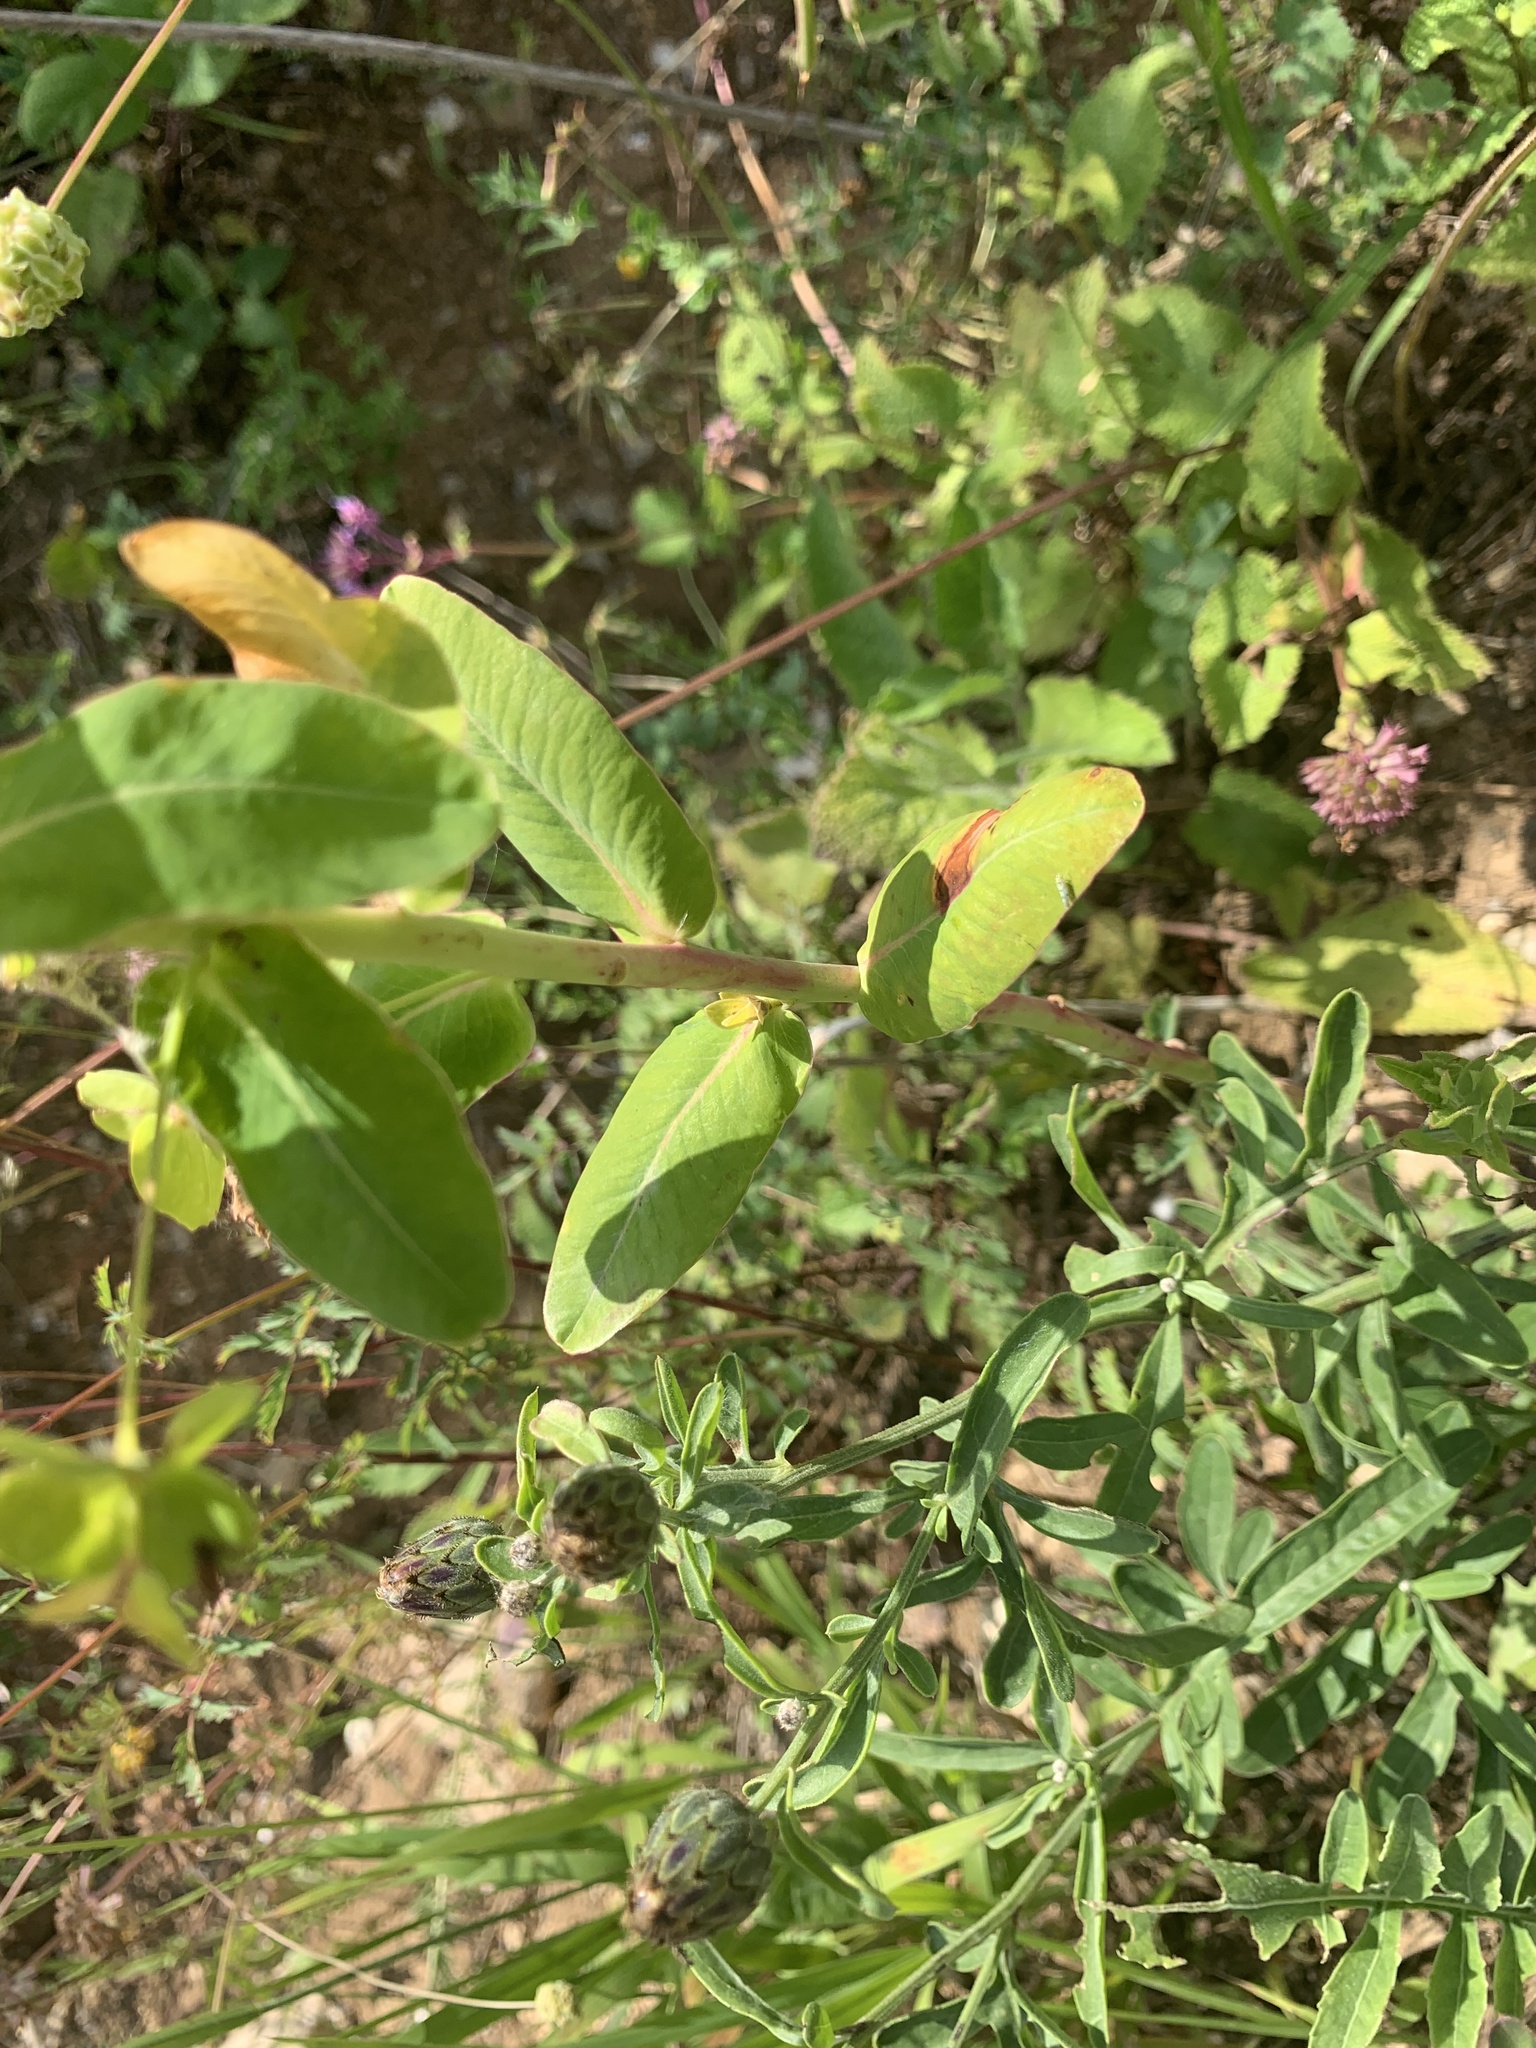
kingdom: Plantae
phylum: Tracheophyta
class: Magnoliopsida
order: Malpighiales
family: Euphorbiaceae
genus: Euphorbia
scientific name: Euphorbia iberica
